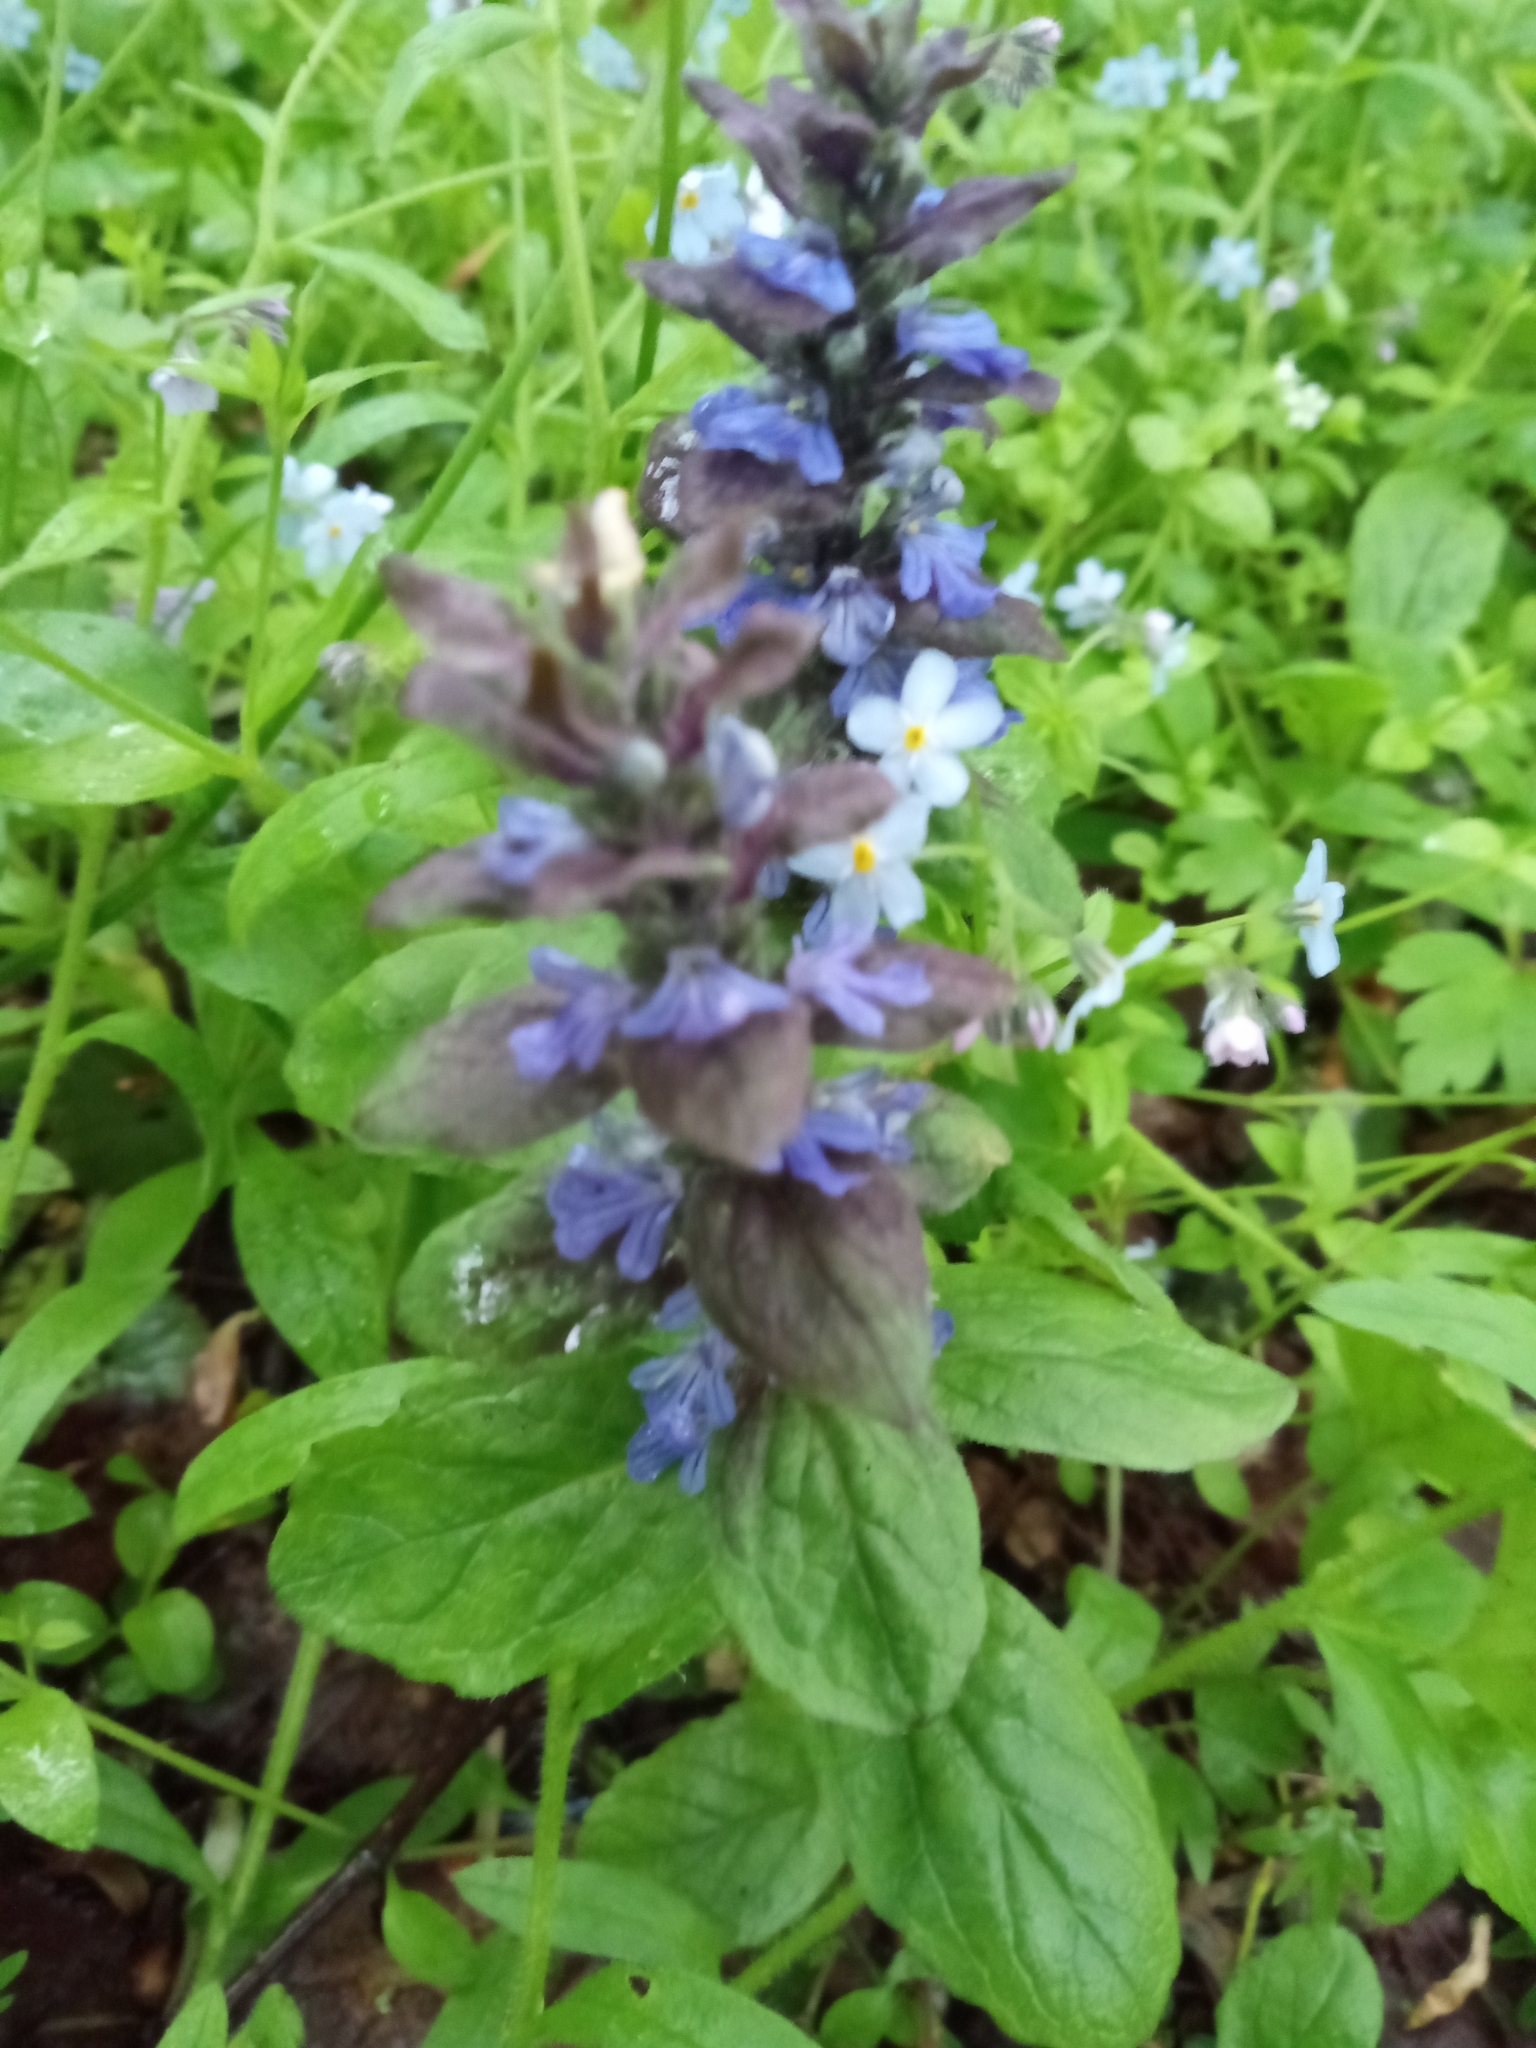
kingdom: Plantae
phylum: Tracheophyta
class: Magnoliopsida
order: Lamiales
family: Lamiaceae
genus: Ajuga
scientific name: Ajuga reptans
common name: Bugle
